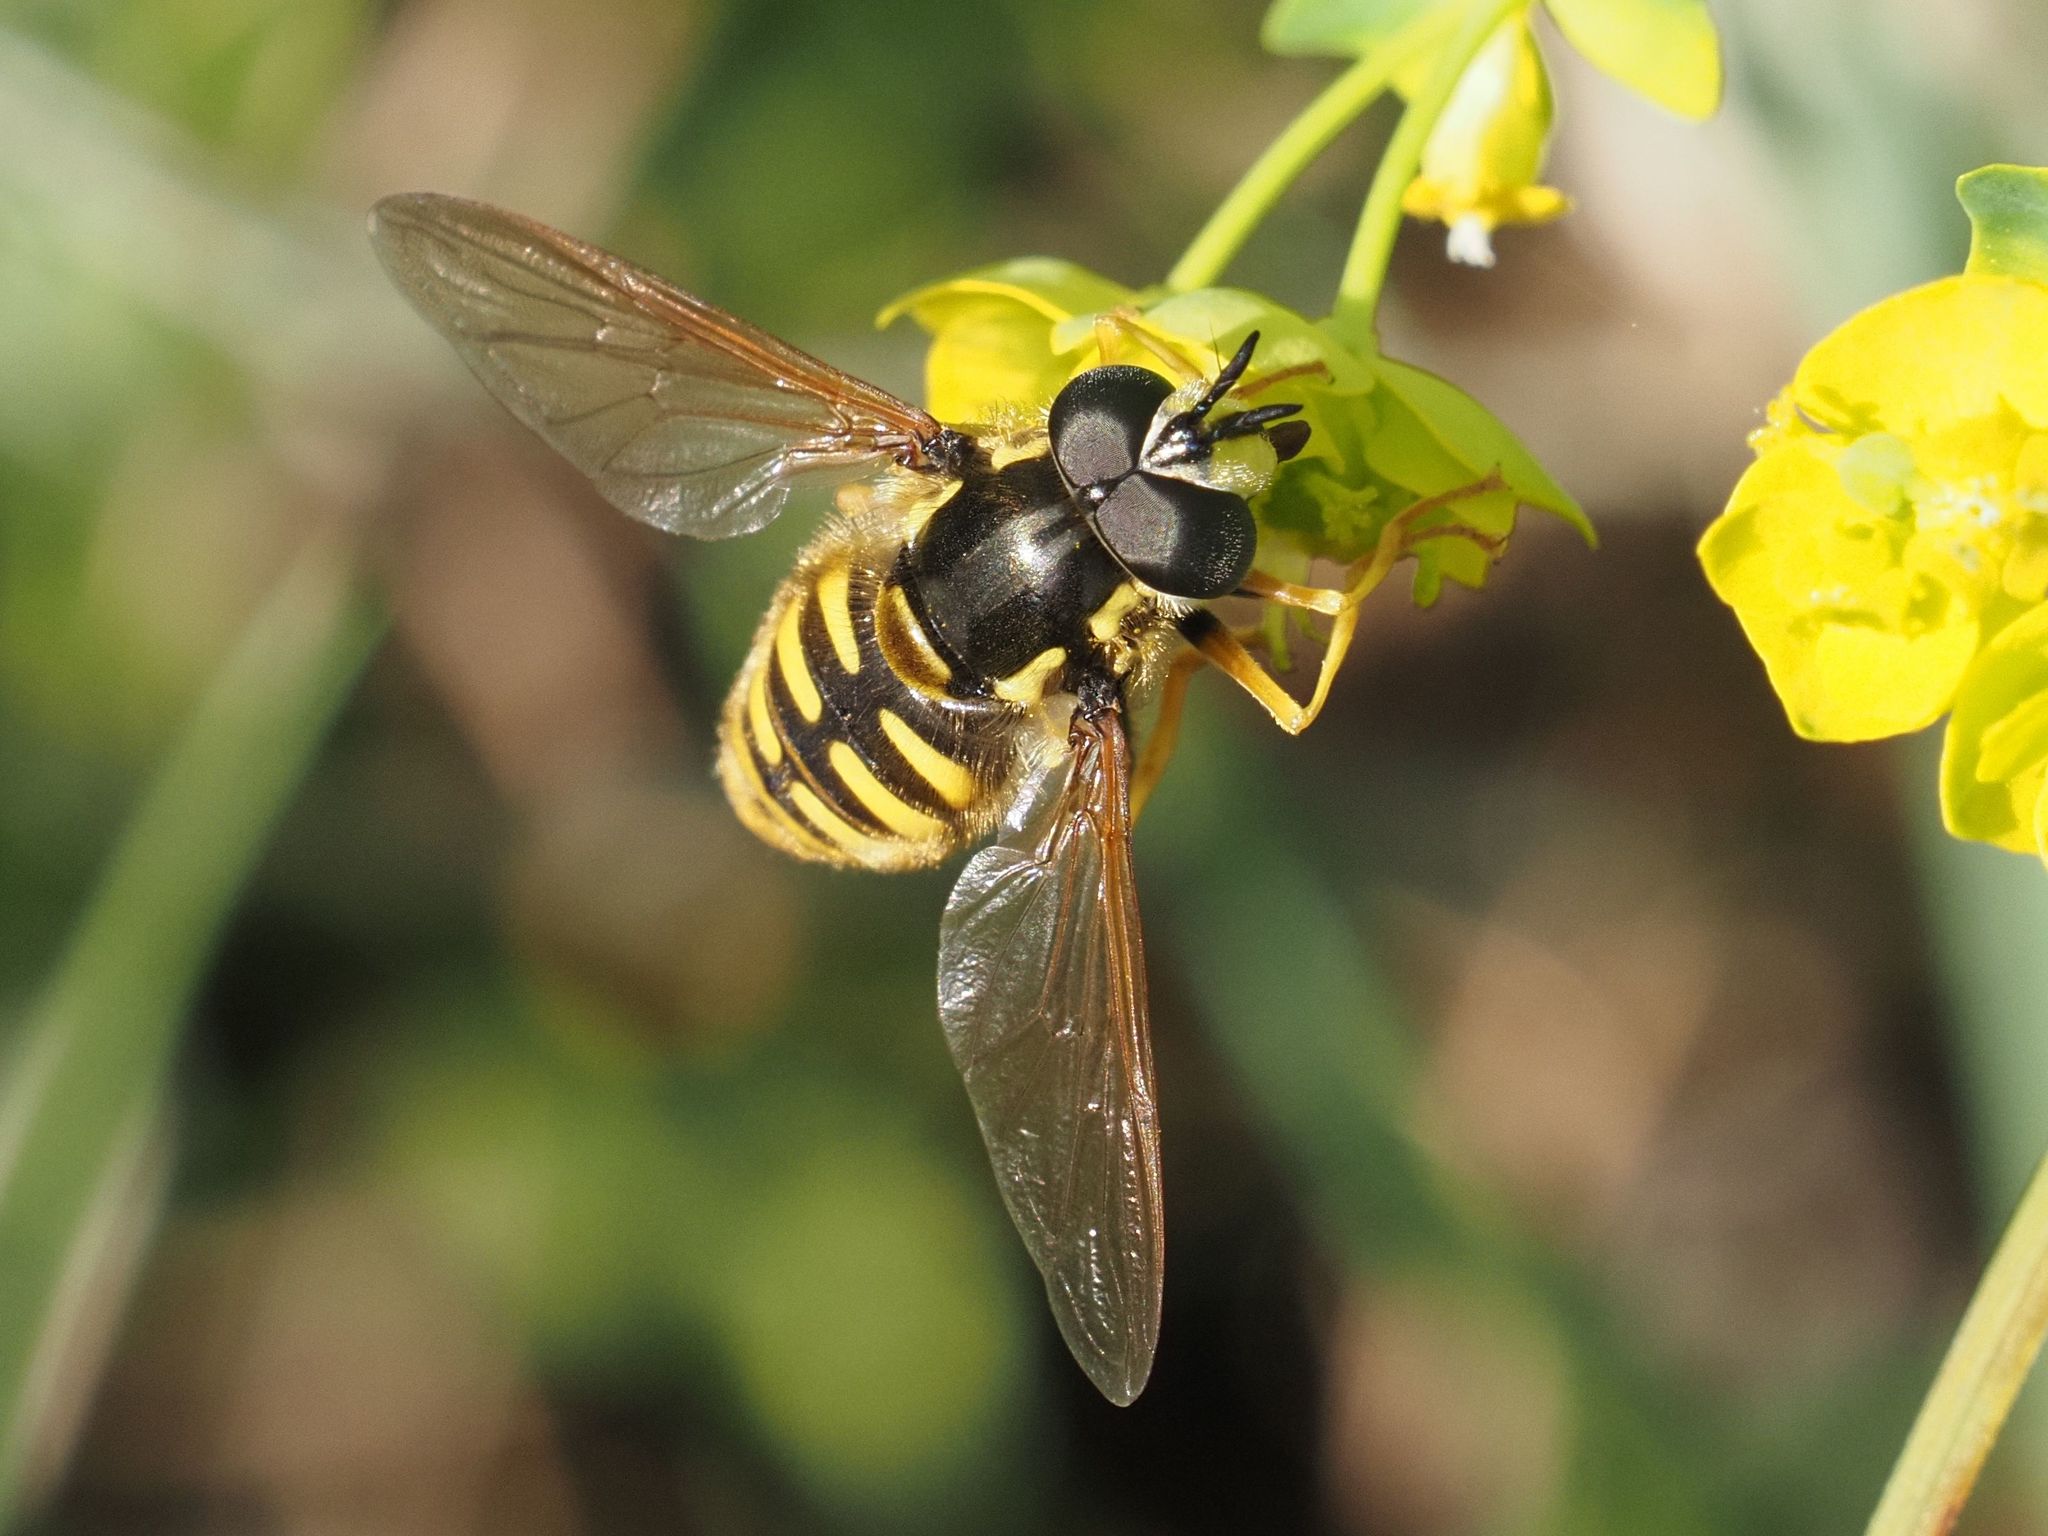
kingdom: Animalia
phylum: Arthropoda
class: Insecta
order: Diptera
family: Syrphidae
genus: Chrysotoxum
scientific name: Chrysotoxum cautum
